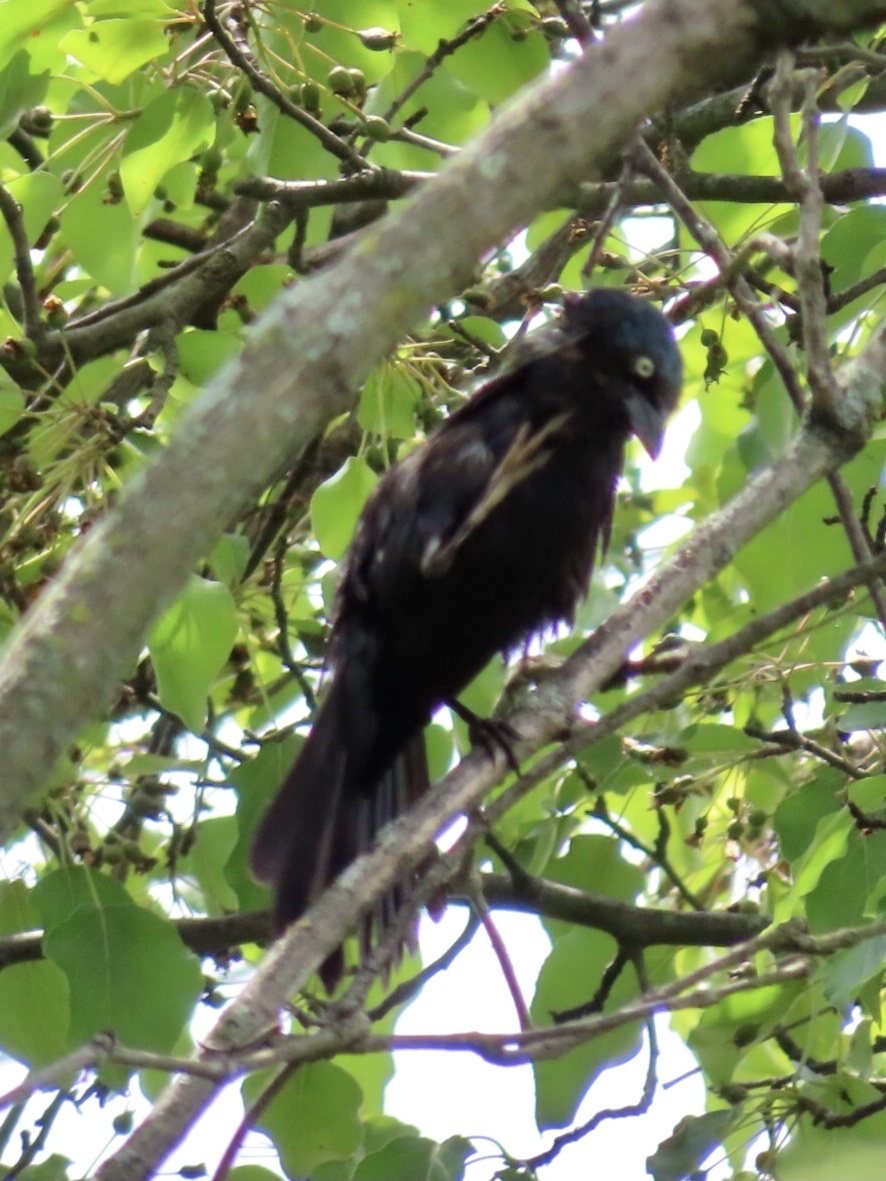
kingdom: Animalia
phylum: Chordata
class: Aves
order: Passeriformes
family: Icteridae
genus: Quiscalus
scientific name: Quiscalus quiscula
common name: Common grackle
